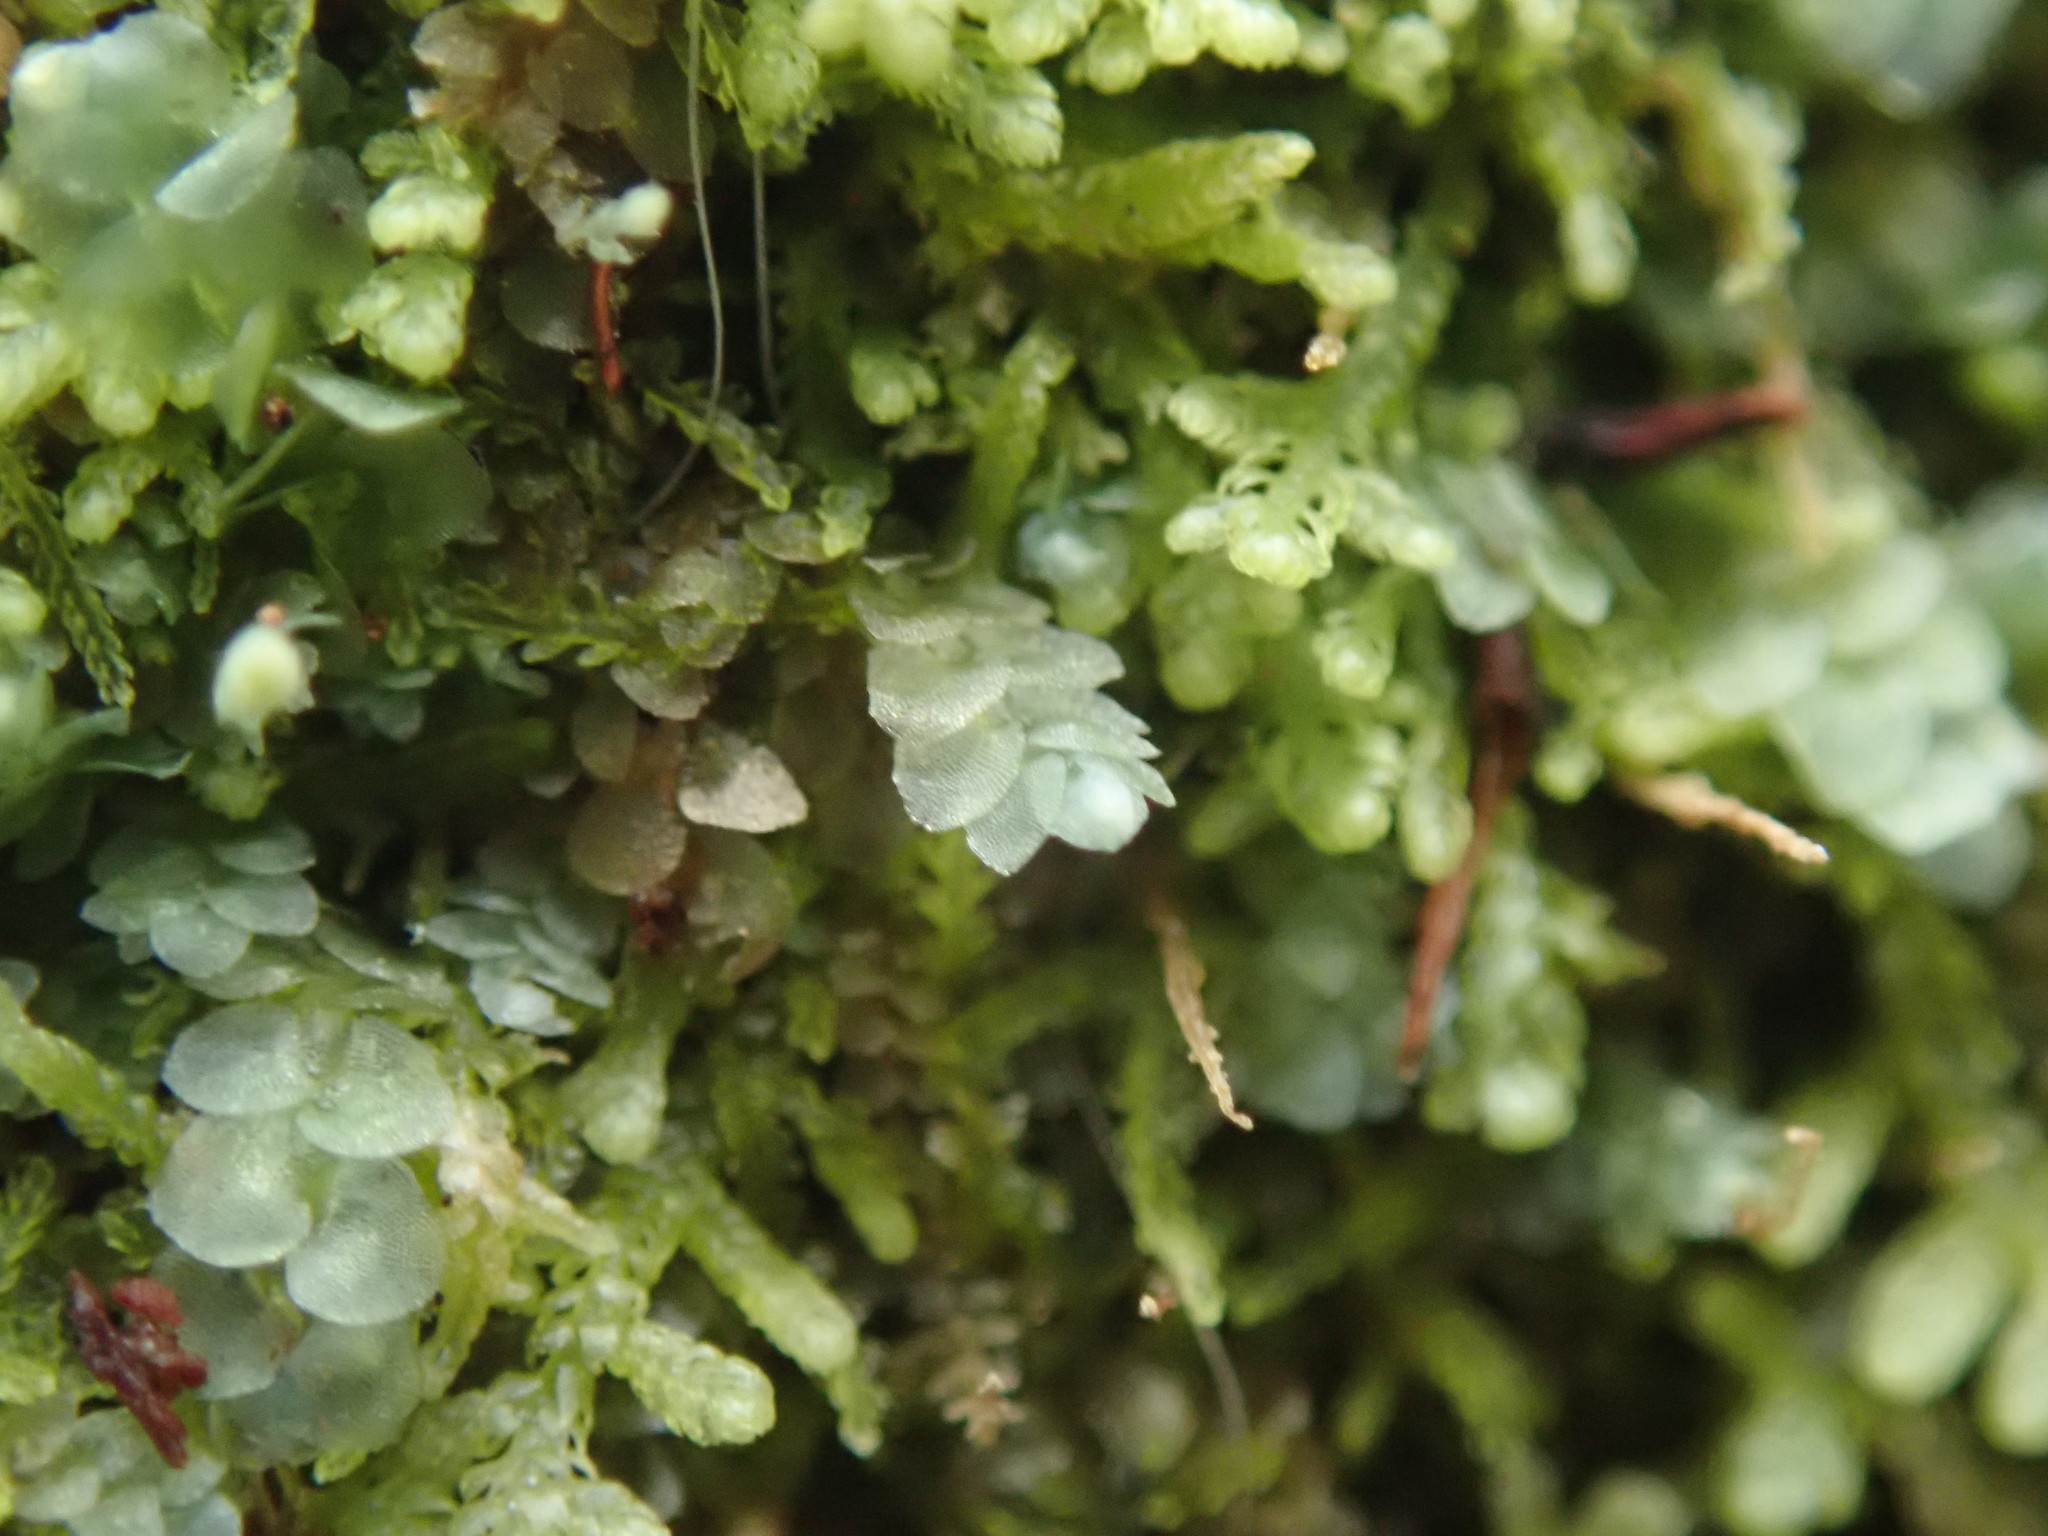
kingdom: Plantae
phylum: Marchantiophyta
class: Jungermanniopsida
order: Jungermanniales
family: Calypogeiaceae
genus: Calypogeia
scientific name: Calypogeia azurea
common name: Blue pouchwort
